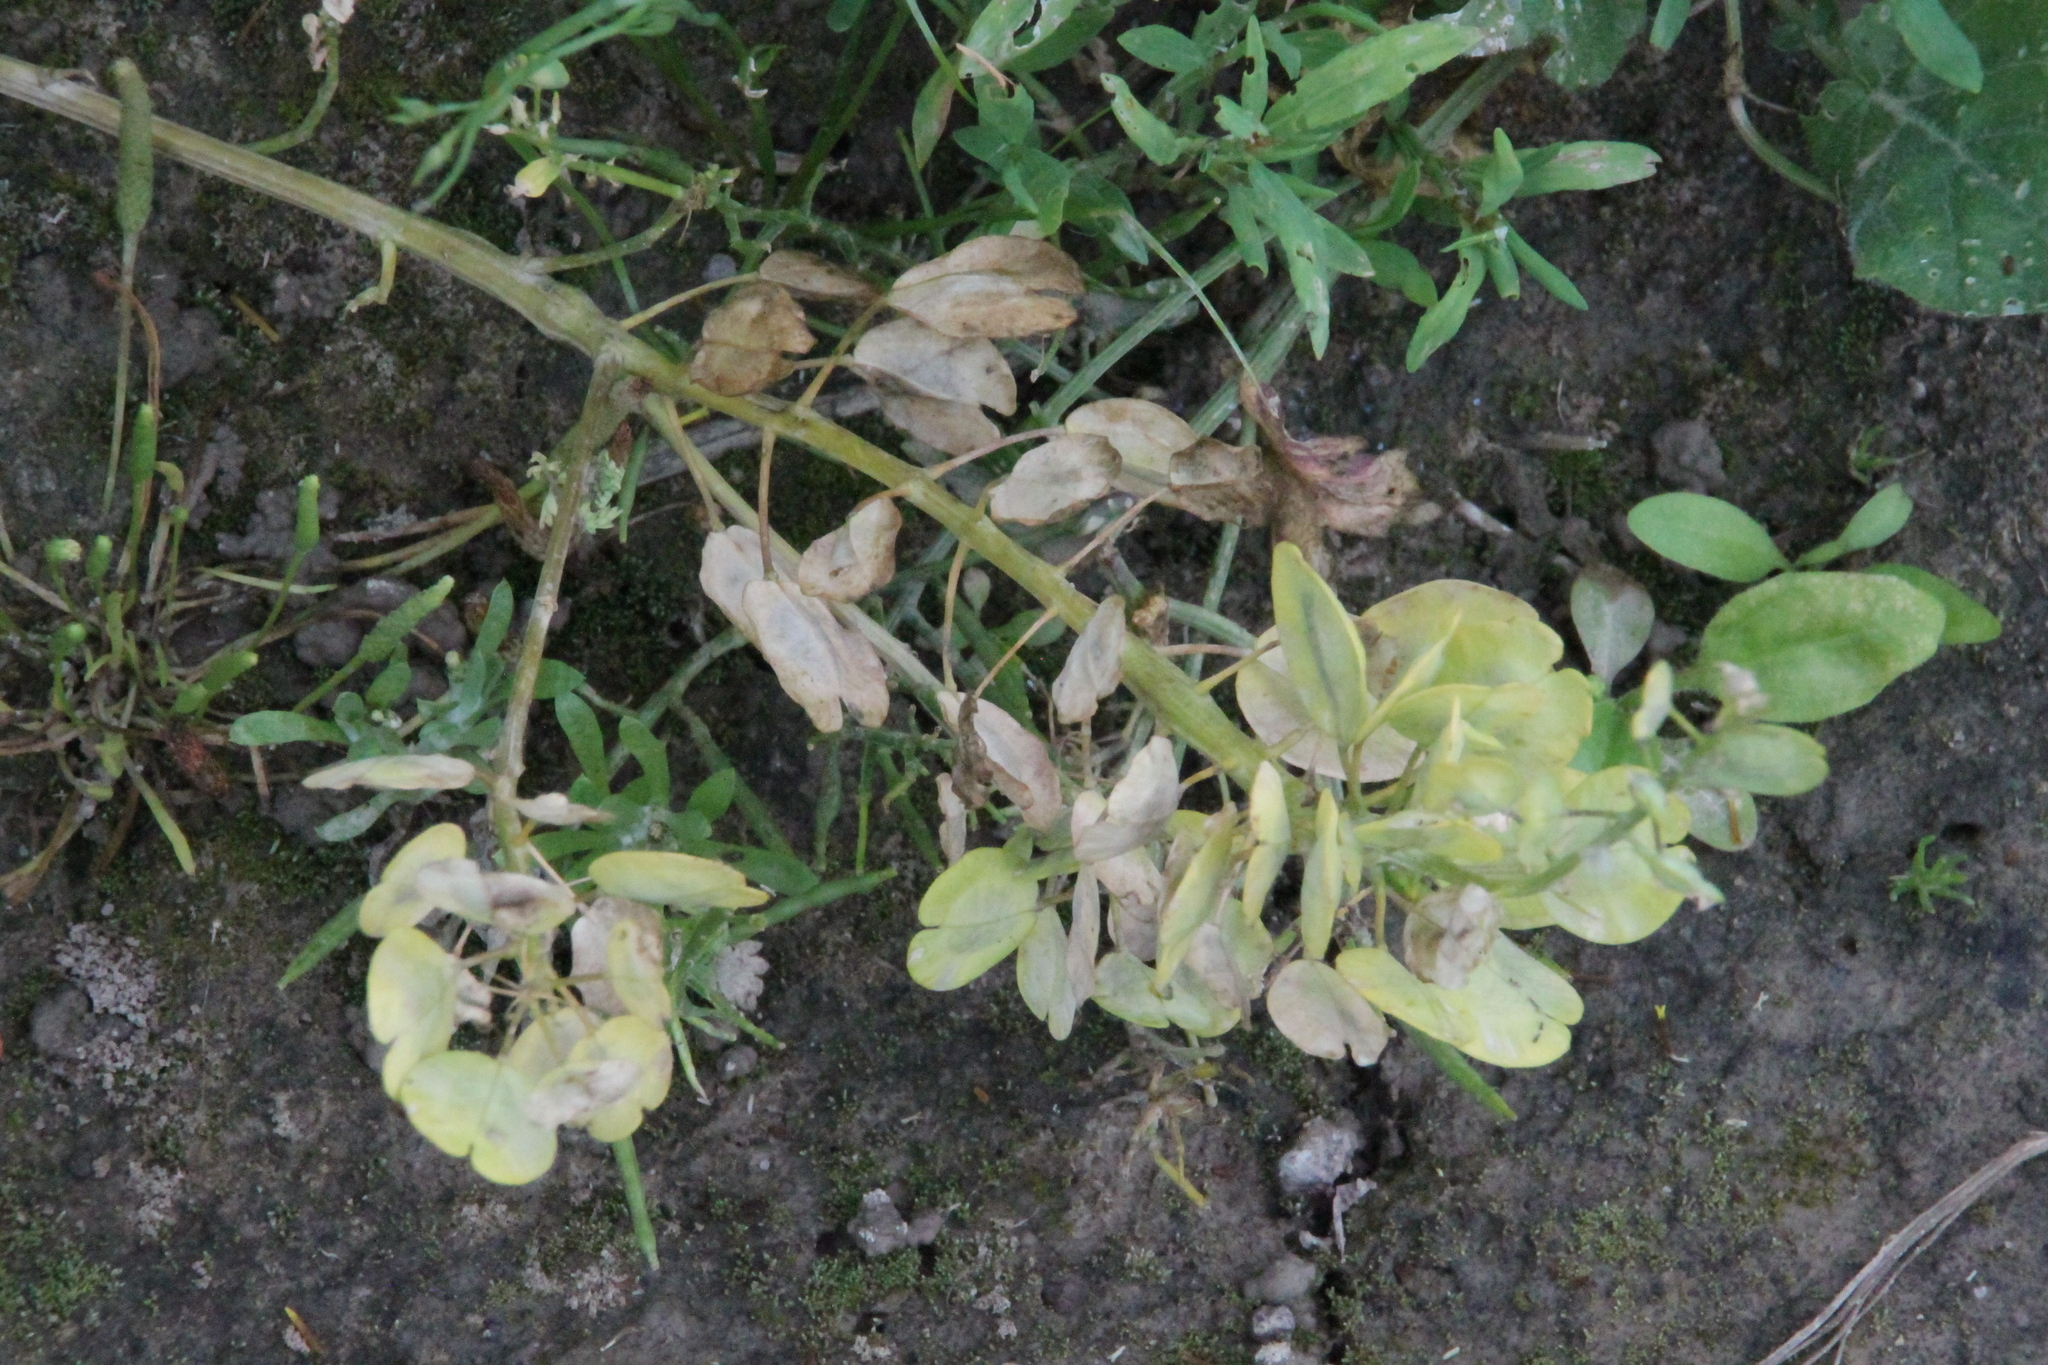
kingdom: Plantae
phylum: Tracheophyta
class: Magnoliopsida
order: Brassicales
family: Brassicaceae
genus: Thlaspi
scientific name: Thlaspi arvense
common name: Field pennycress
